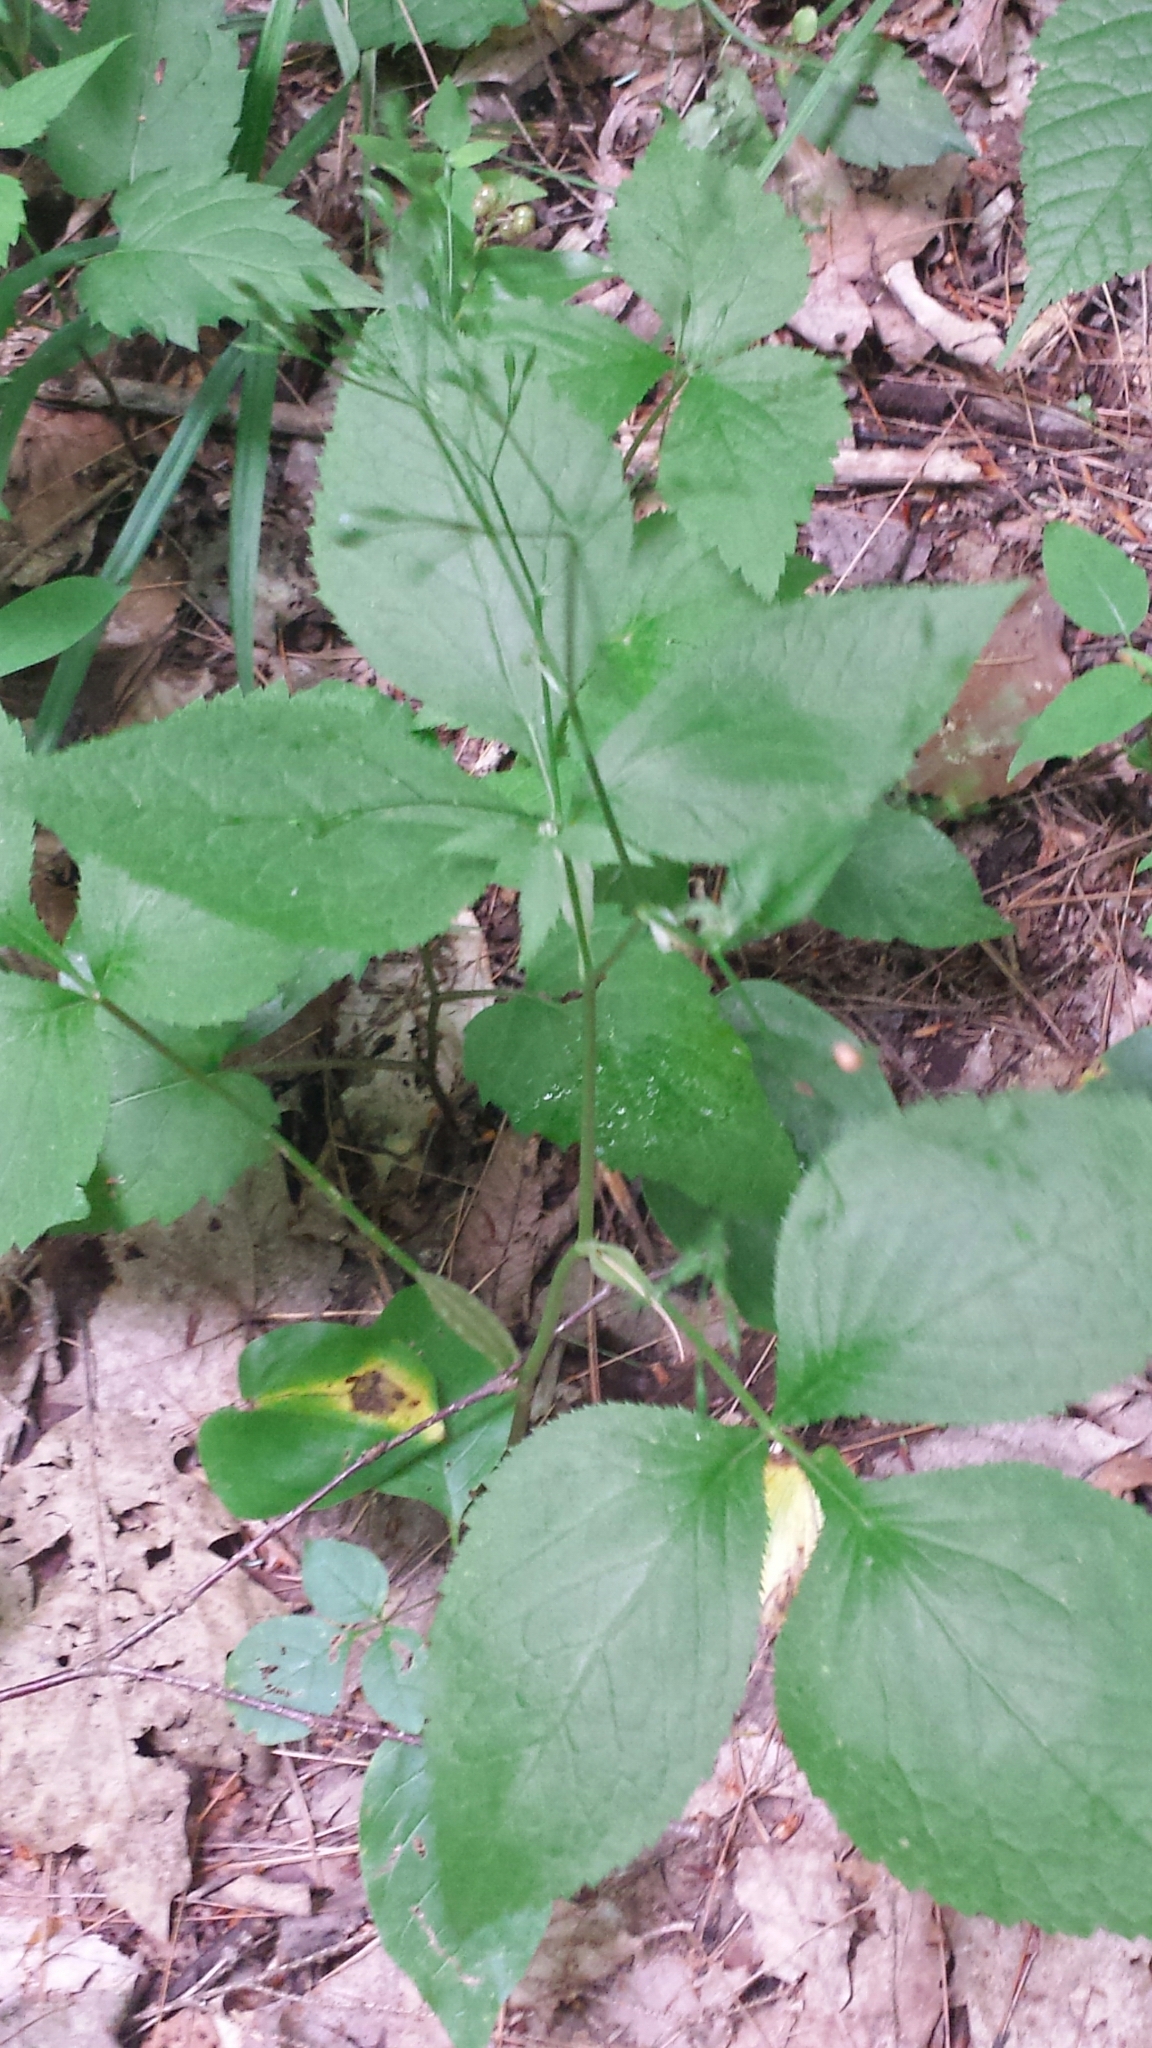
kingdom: Plantae
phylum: Tracheophyta
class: Magnoliopsida
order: Apiales
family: Apiaceae
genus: Cryptotaenia
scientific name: Cryptotaenia canadensis
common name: Honewort
